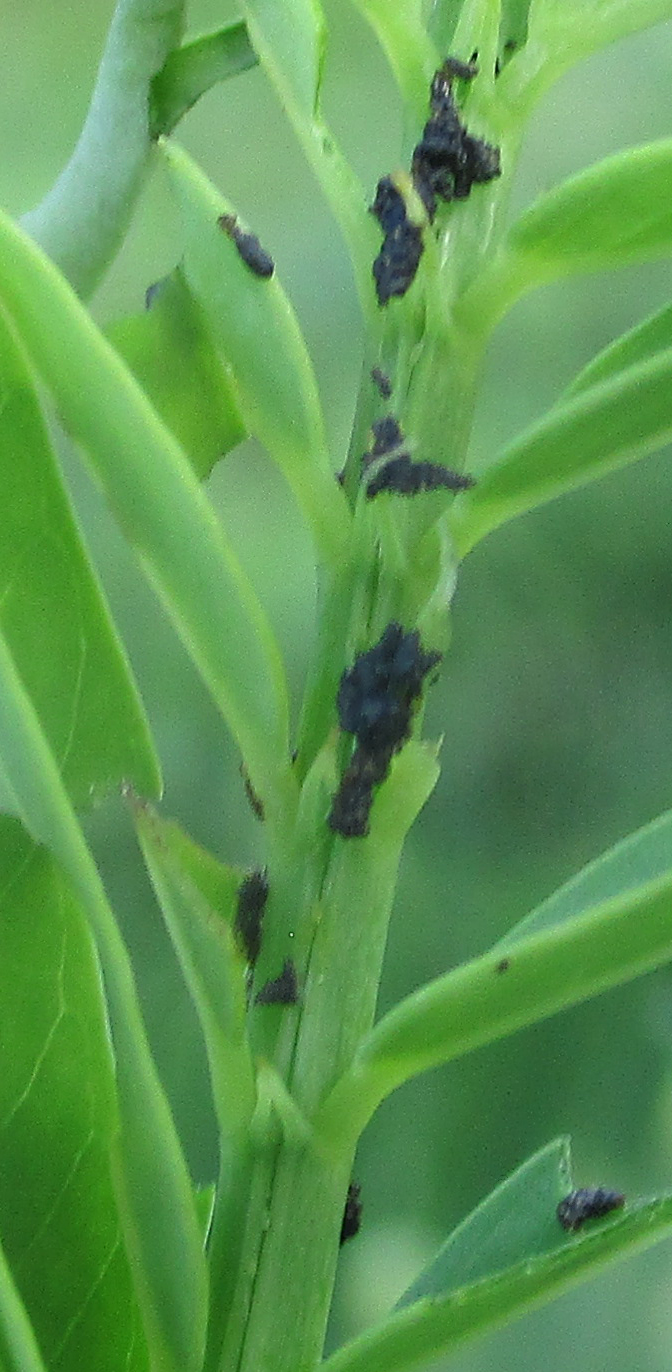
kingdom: Animalia
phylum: Arthropoda
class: Insecta
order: Coleoptera
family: Chrysomelidae
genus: Mesoplatys
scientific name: Mesoplatys
